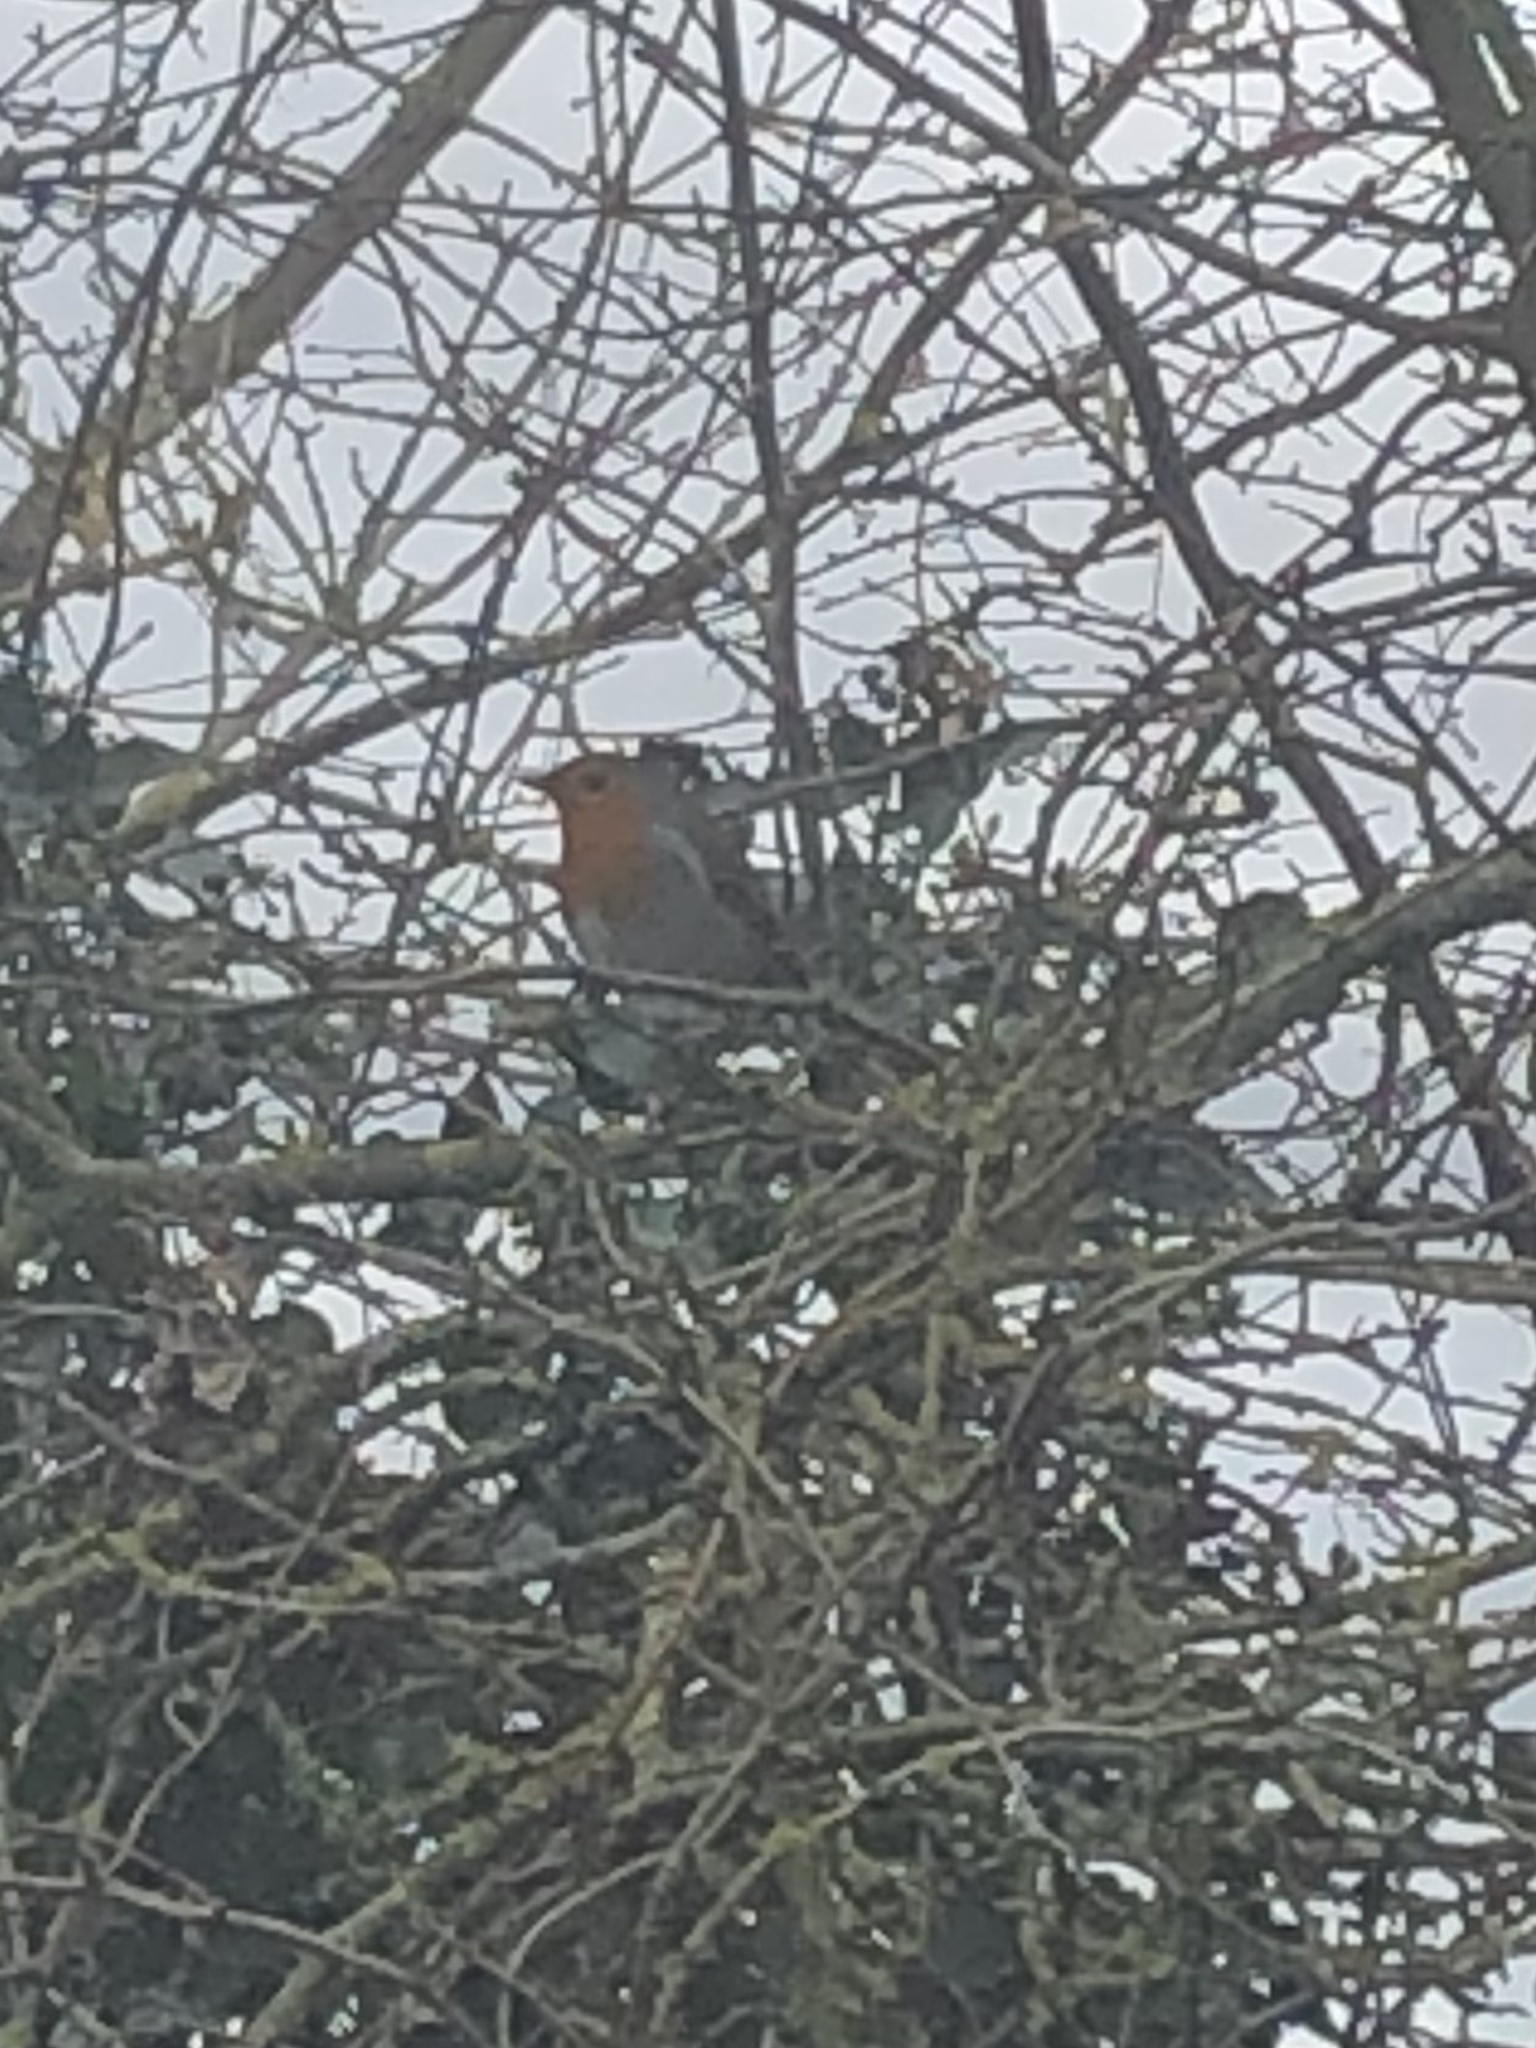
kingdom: Animalia
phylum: Chordata
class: Aves
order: Passeriformes
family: Muscicapidae
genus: Erithacus
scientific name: Erithacus rubecula
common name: European robin
